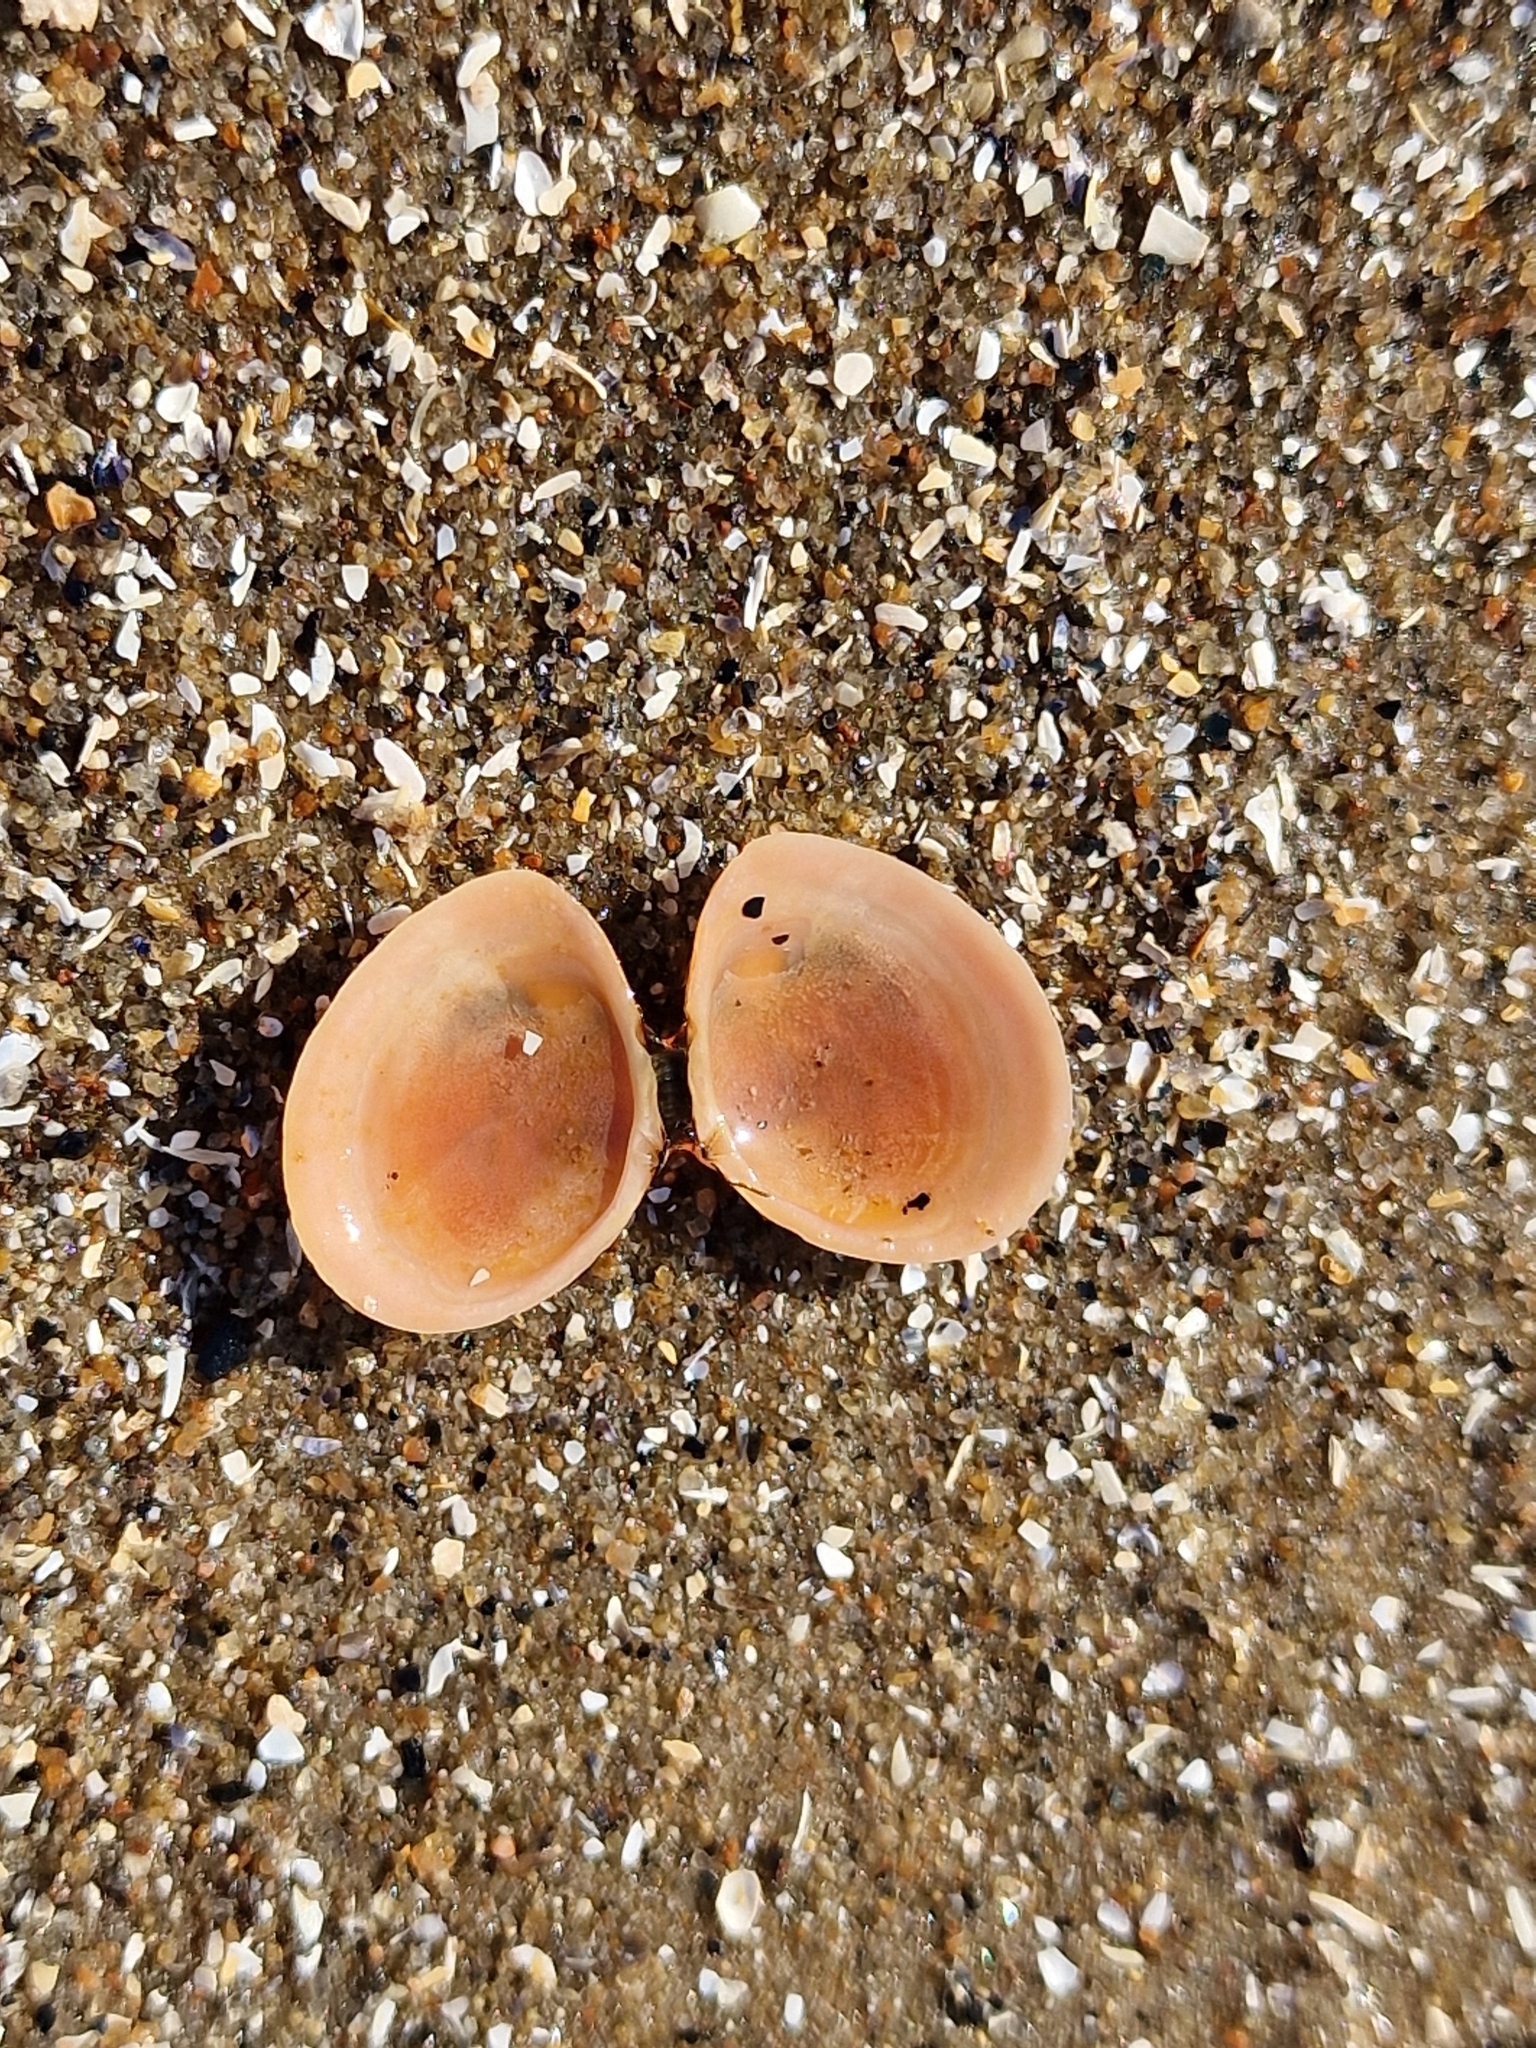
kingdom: Animalia
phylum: Mollusca
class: Bivalvia
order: Cardiida
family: Tellinidae
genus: Macoma
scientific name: Macoma balthica
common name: Baltic tellin
